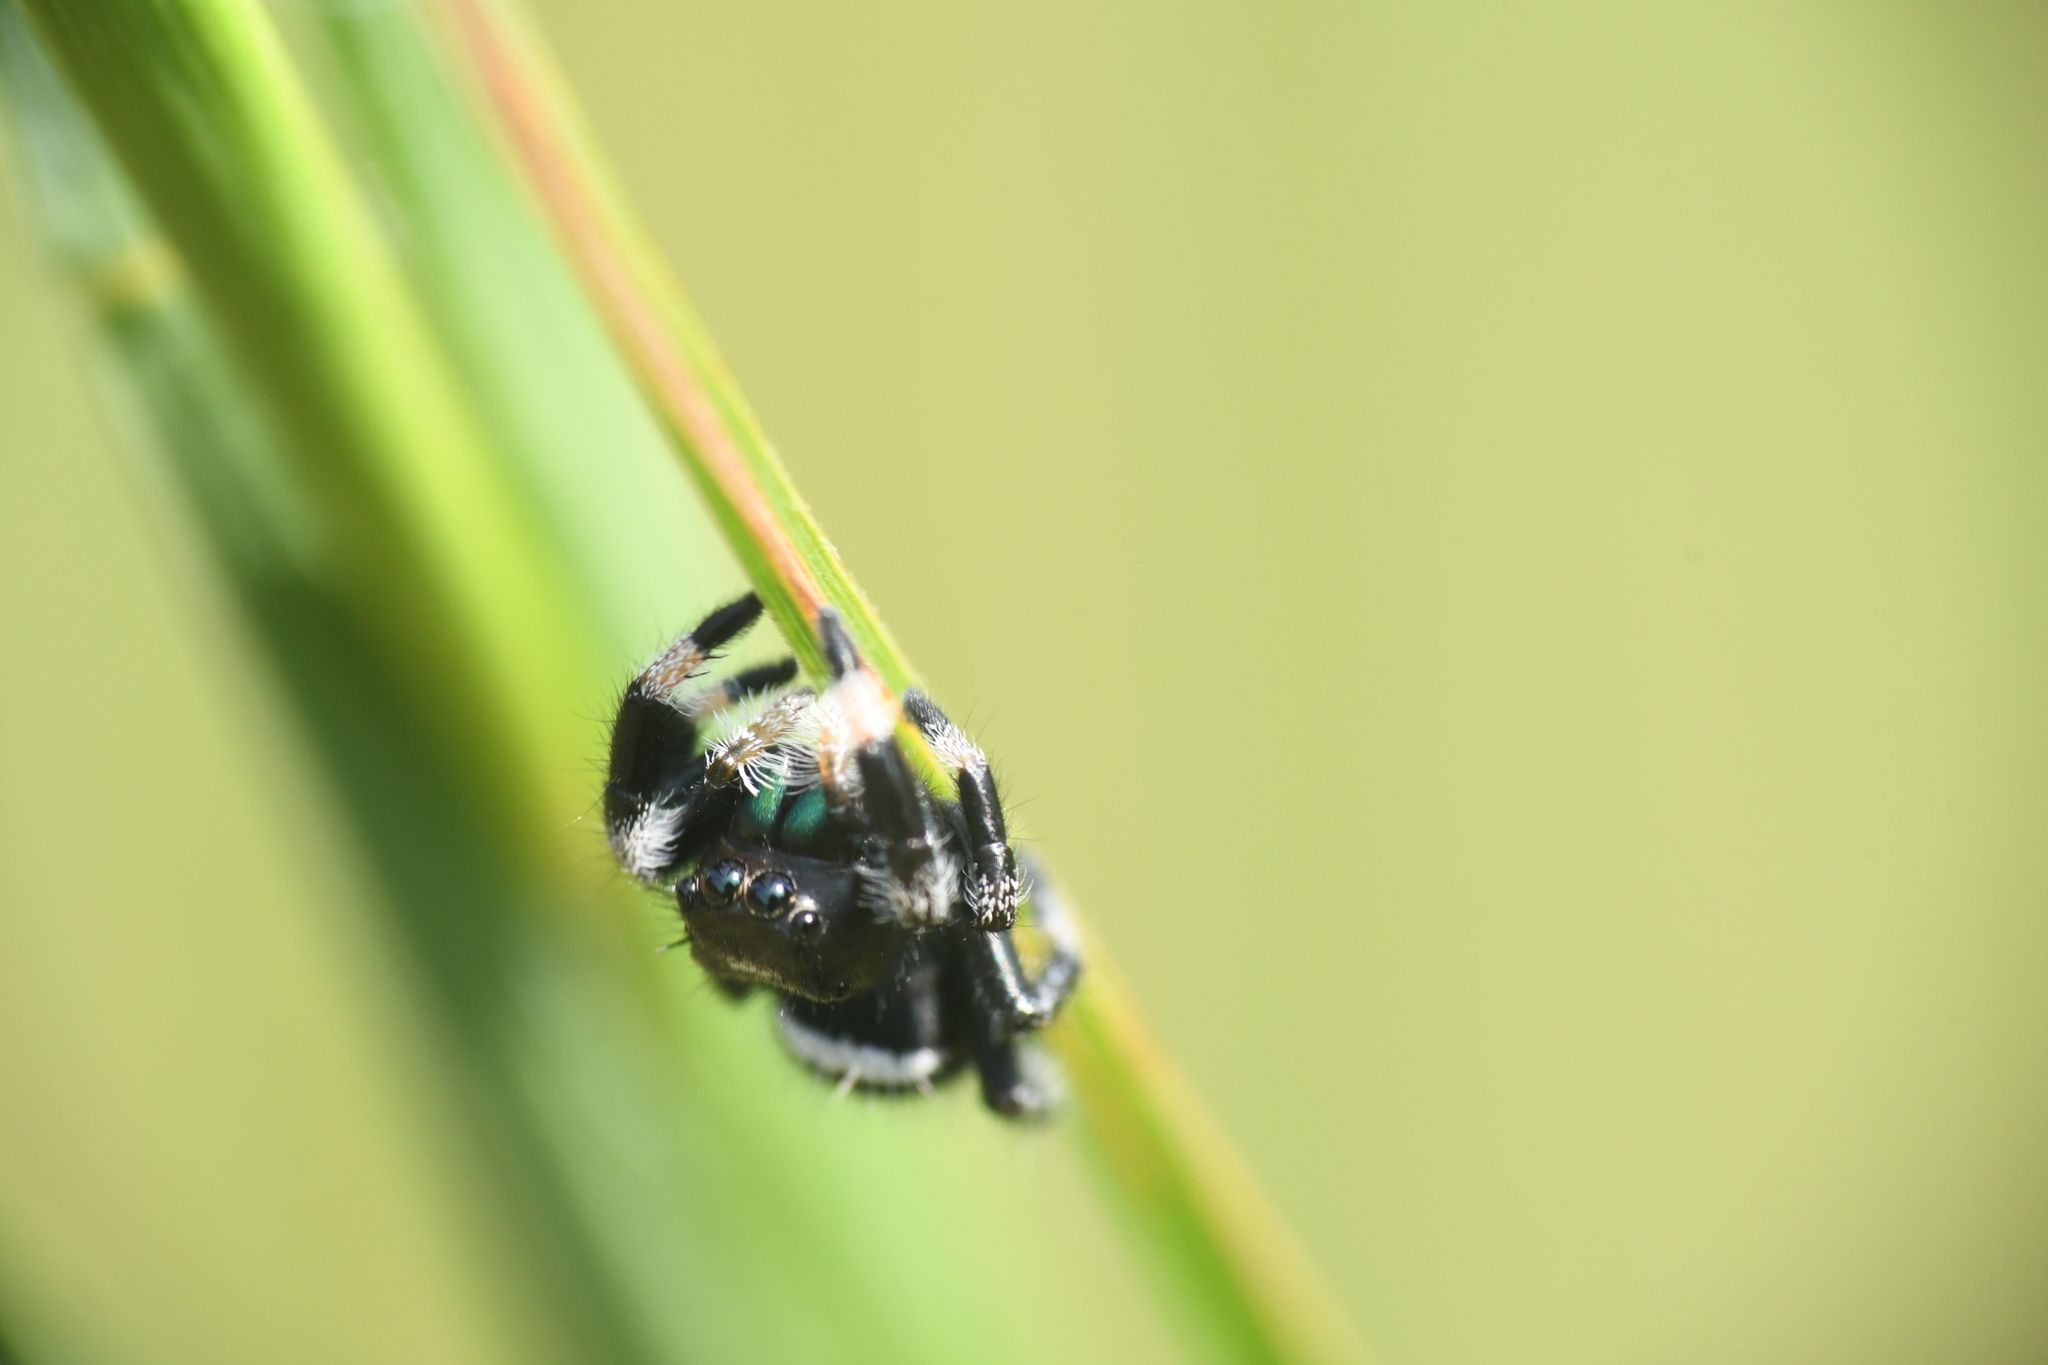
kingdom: Animalia
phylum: Arthropoda
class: Arachnida
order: Araneae
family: Salticidae
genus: Phidippus
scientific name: Phidippus regius
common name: Regal jumper
